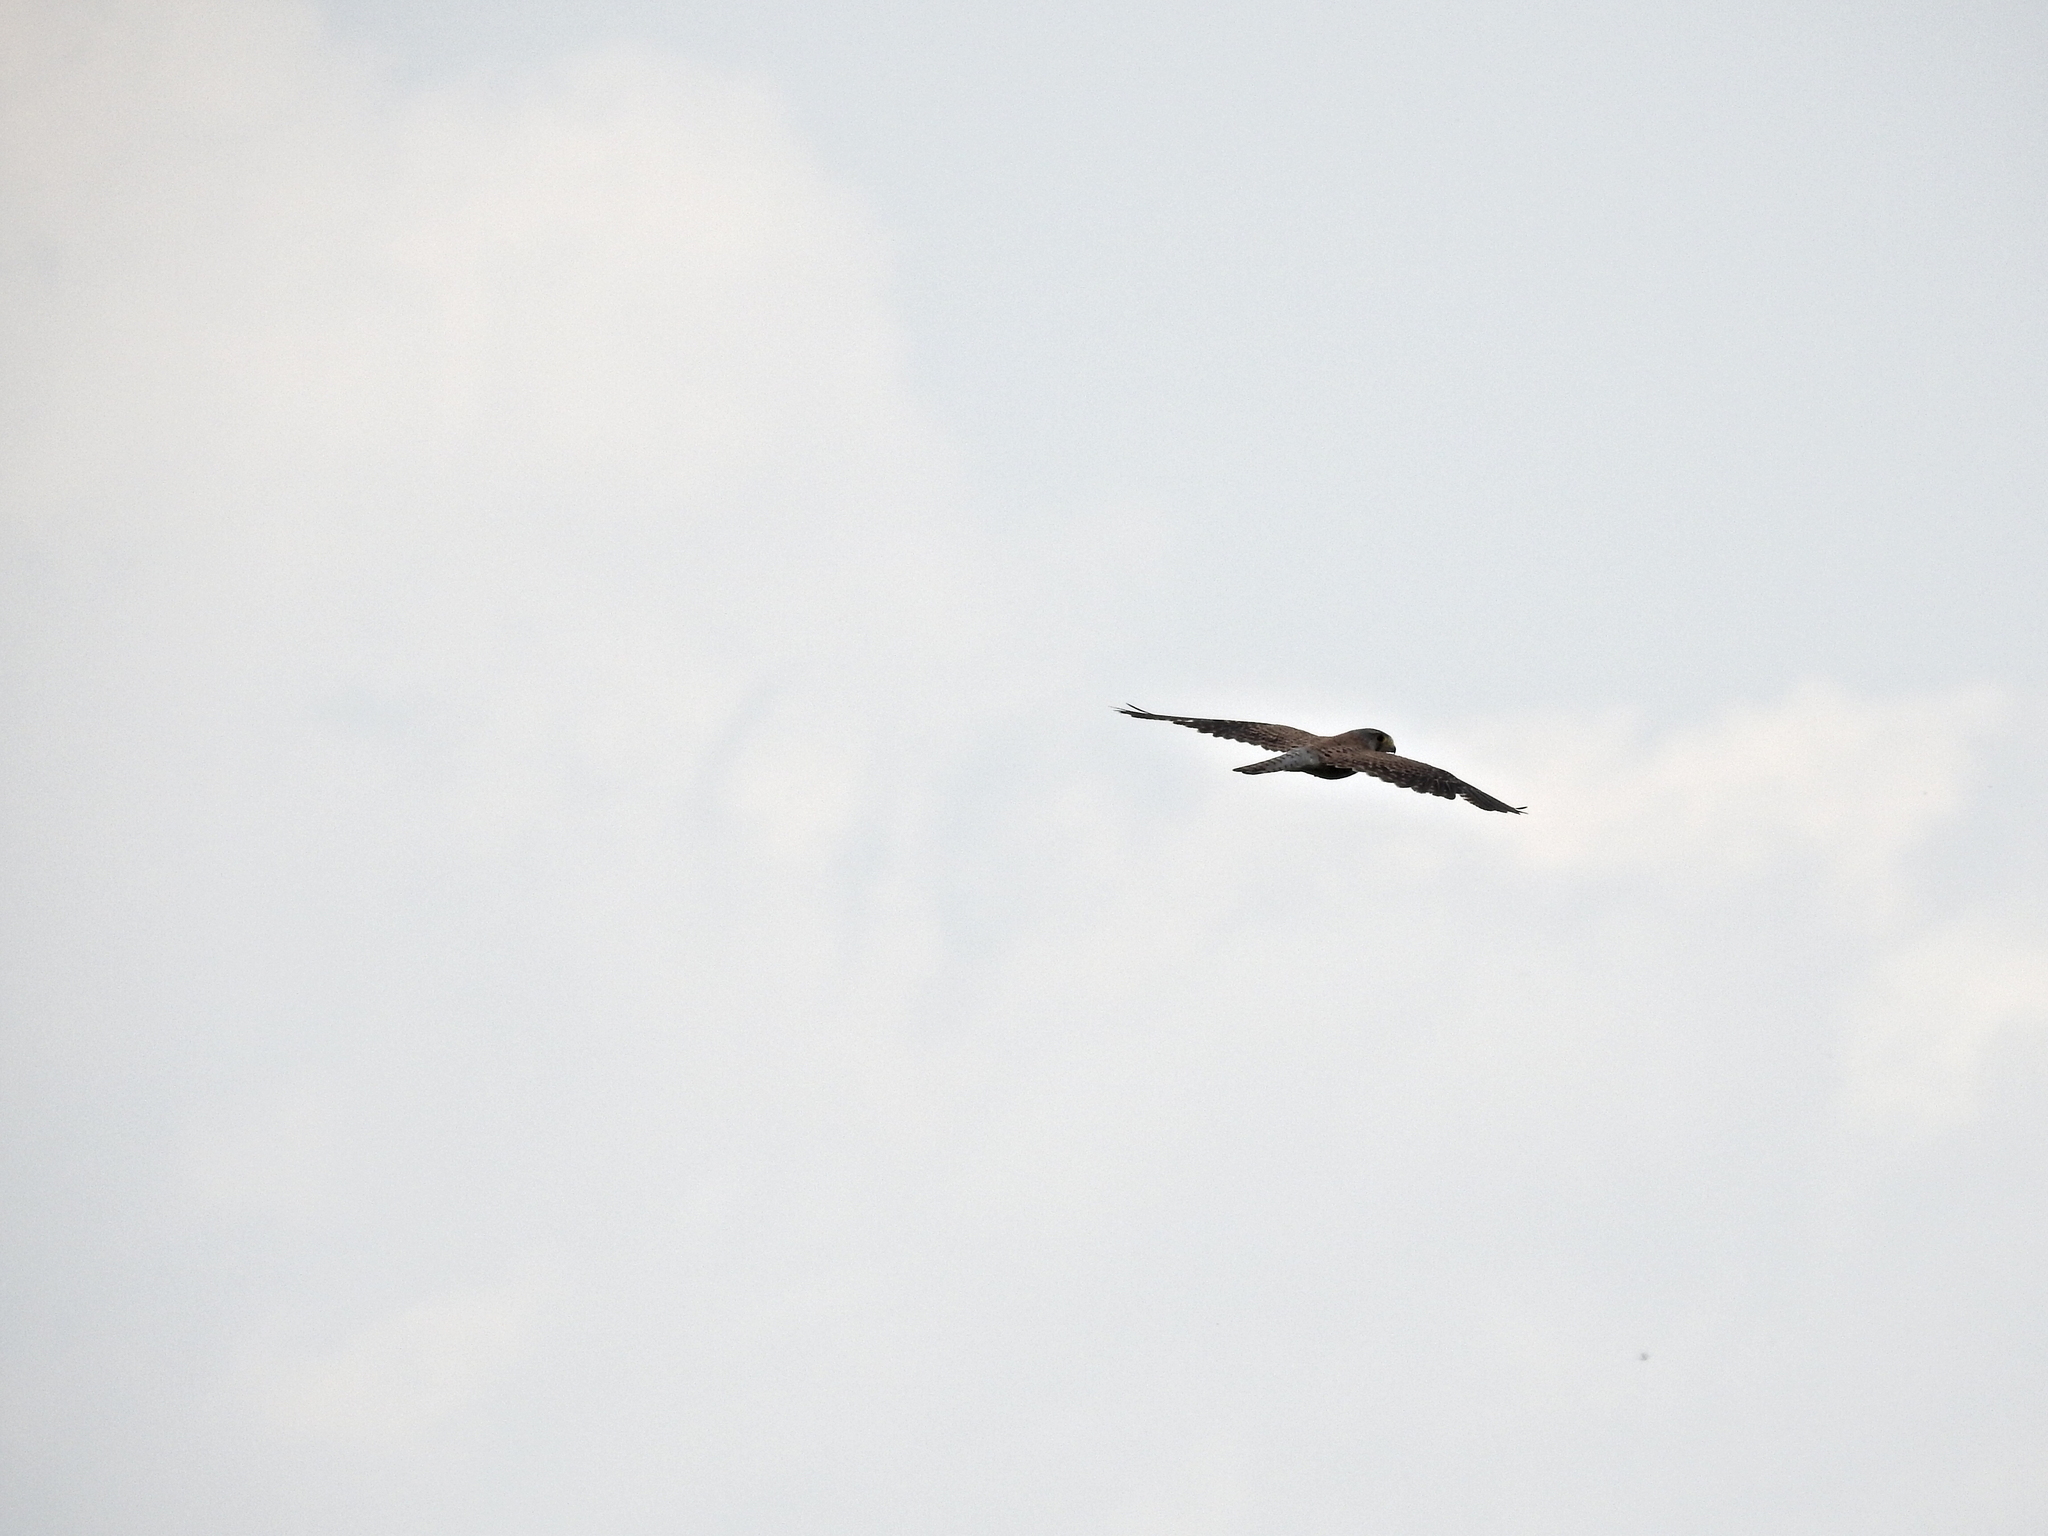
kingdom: Animalia
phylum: Chordata
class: Aves
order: Falconiformes
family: Falconidae
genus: Falco
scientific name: Falco tinnunculus
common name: Common kestrel
